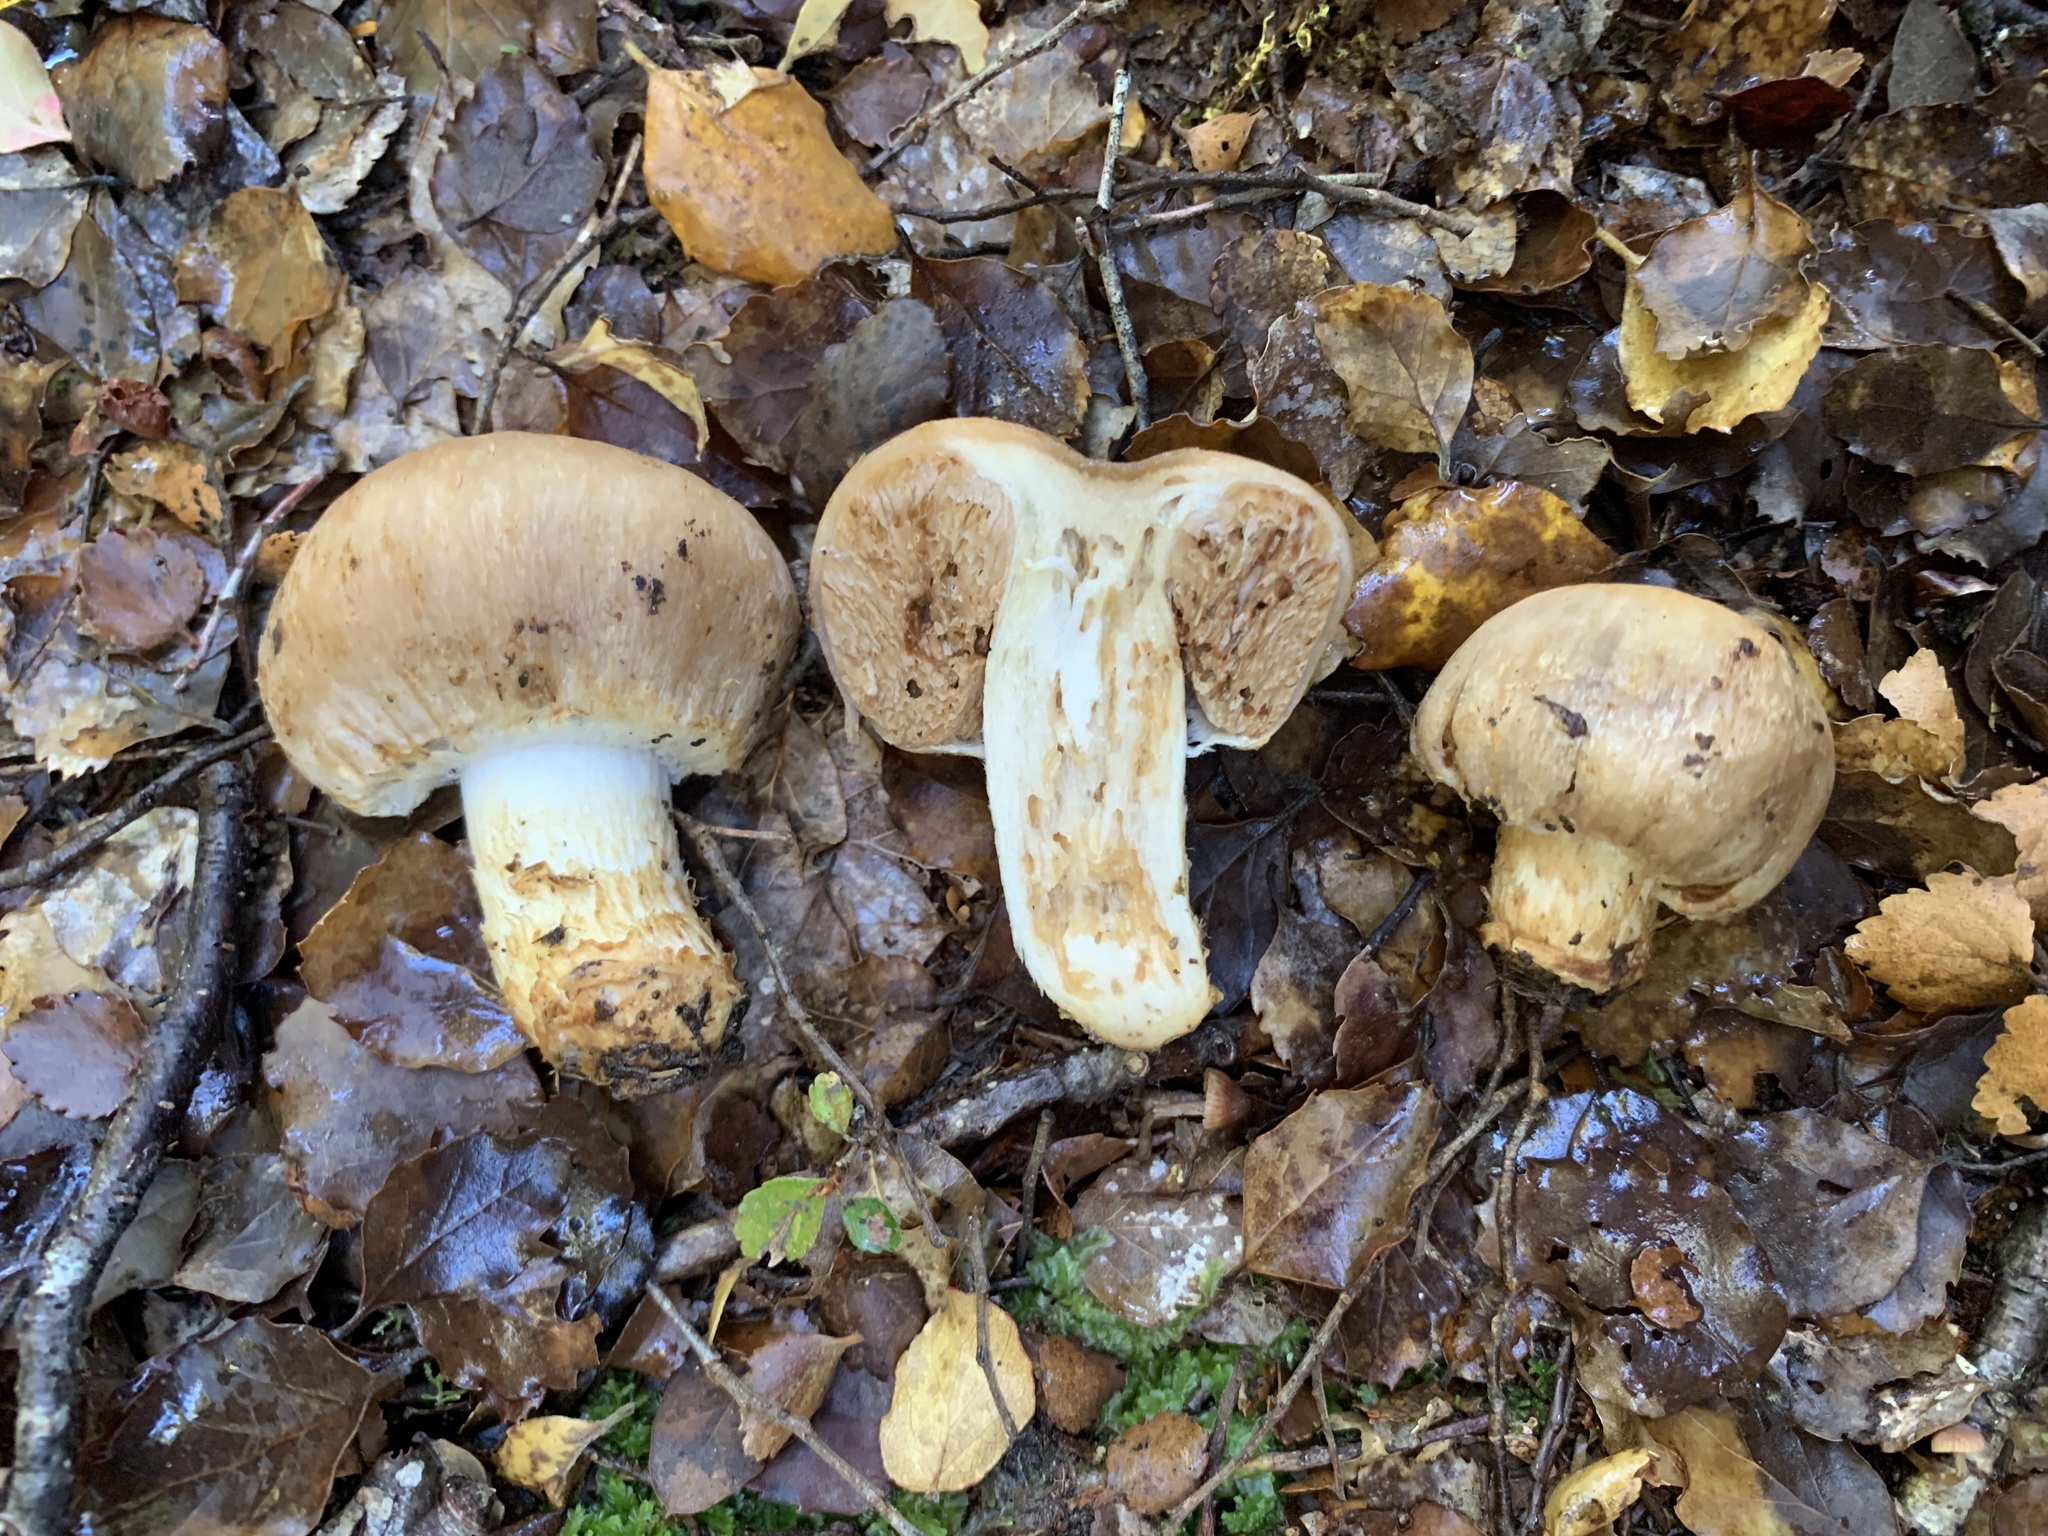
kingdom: Fungi
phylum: Basidiomycota
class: Agaricomycetes
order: Agaricales
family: Cortinariaceae
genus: Cortinarius
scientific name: Cortinarius ohauensis
